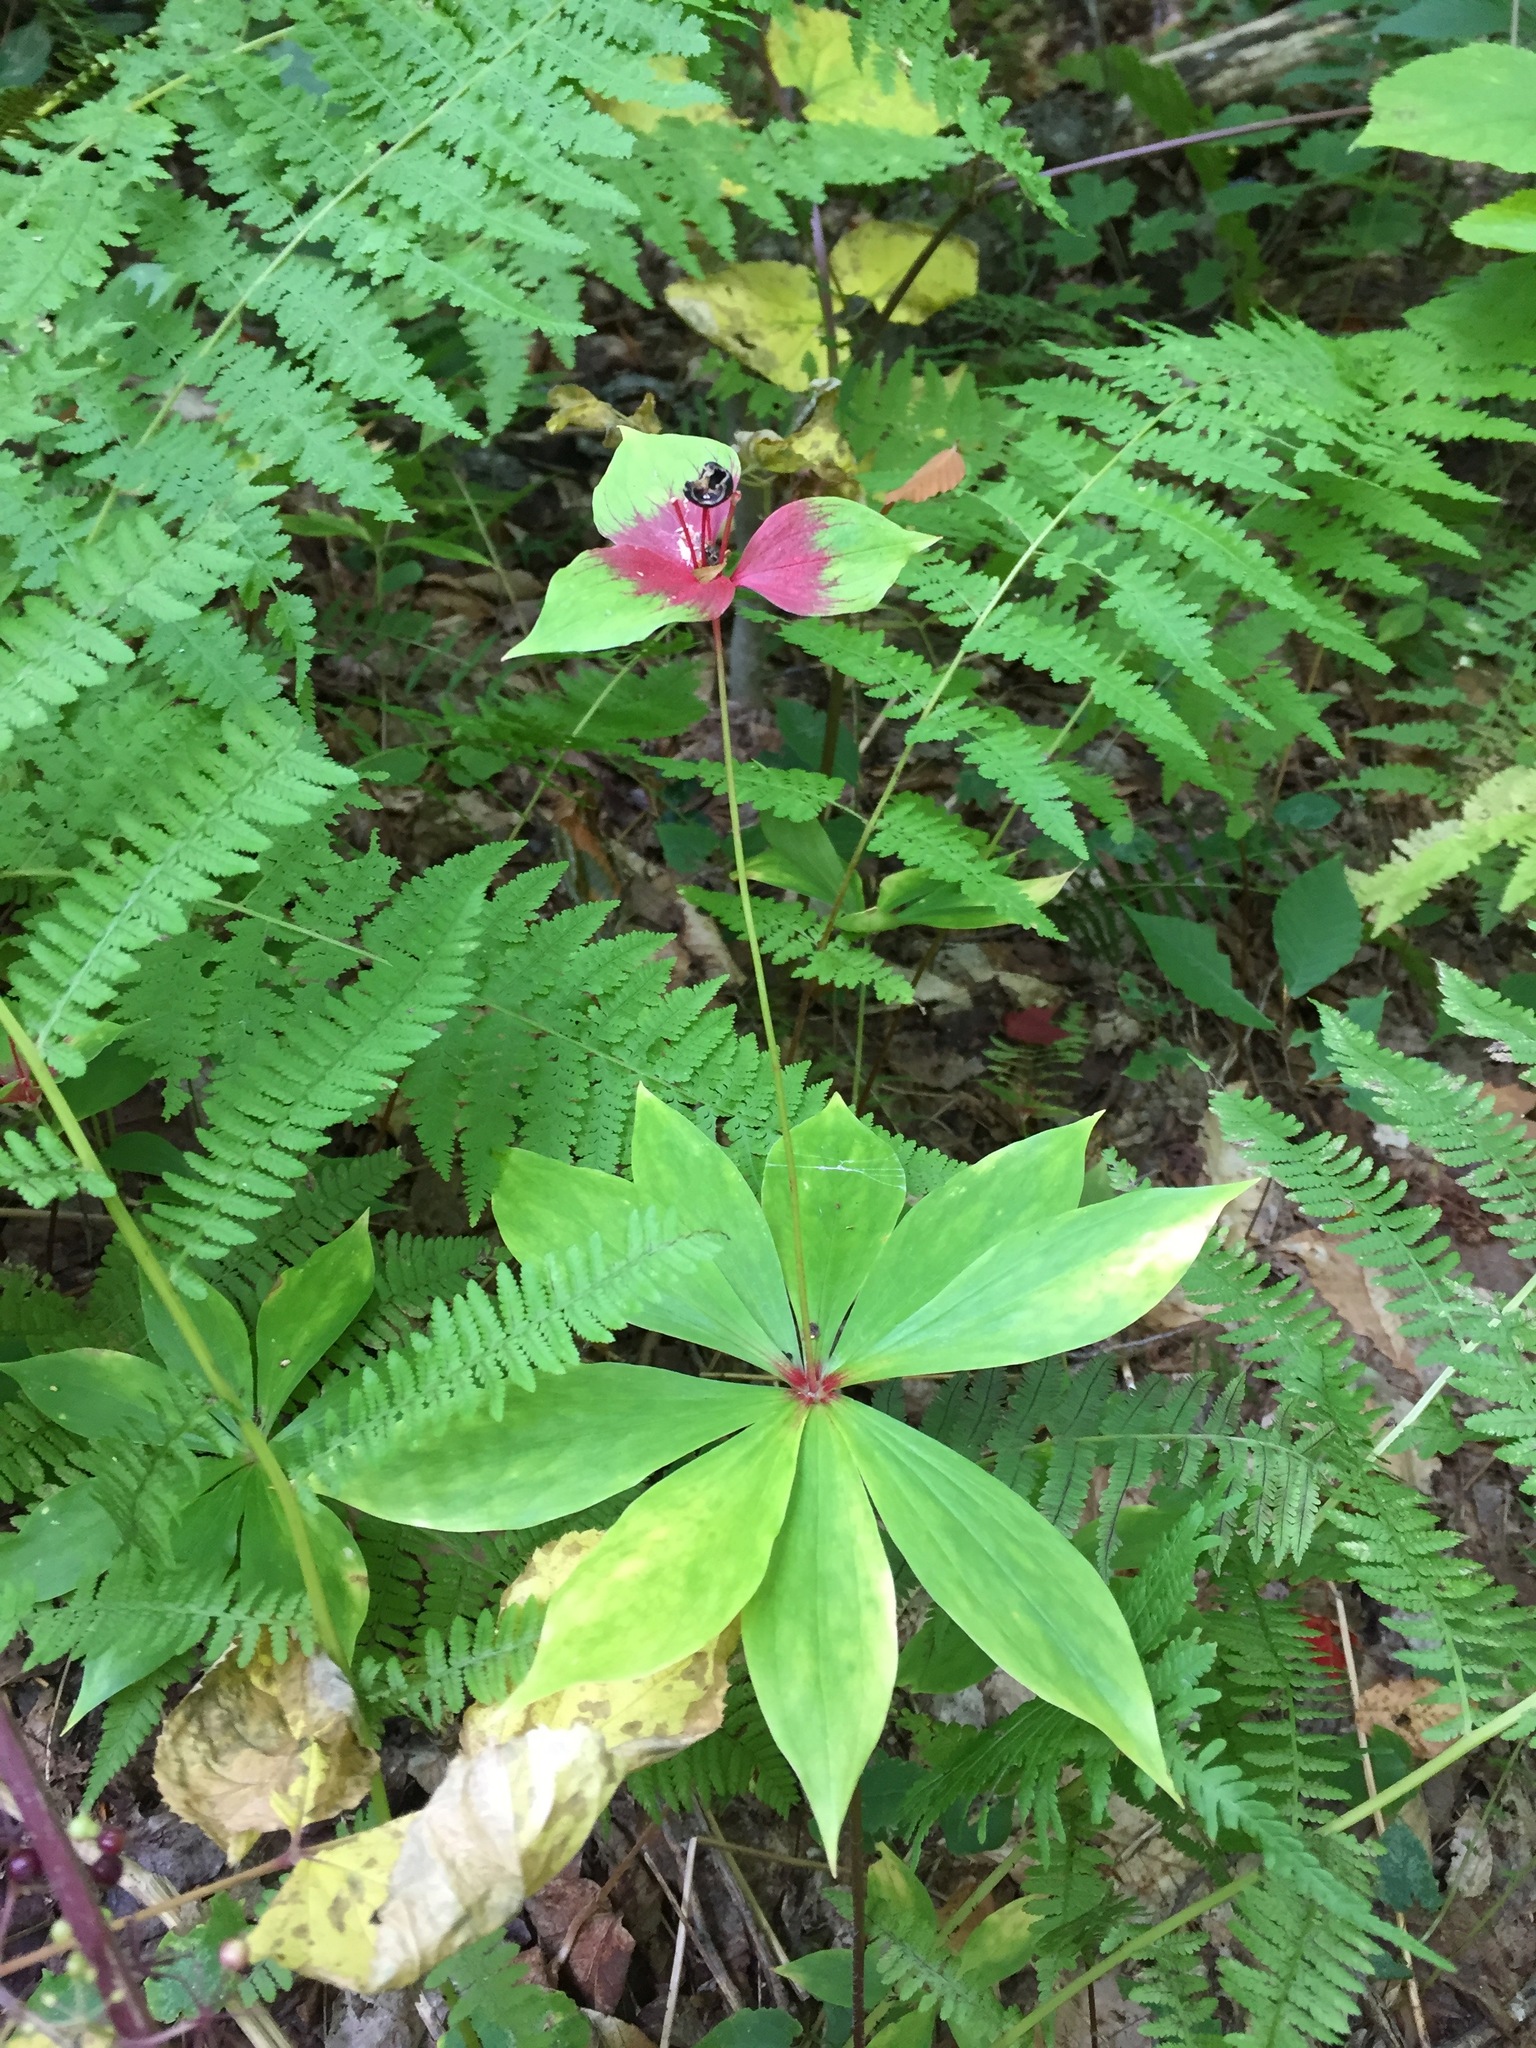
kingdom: Plantae
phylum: Tracheophyta
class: Liliopsida
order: Liliales
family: Liliaceae
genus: Medeola
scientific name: Medeola virginiana
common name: Indian cucumber-root
